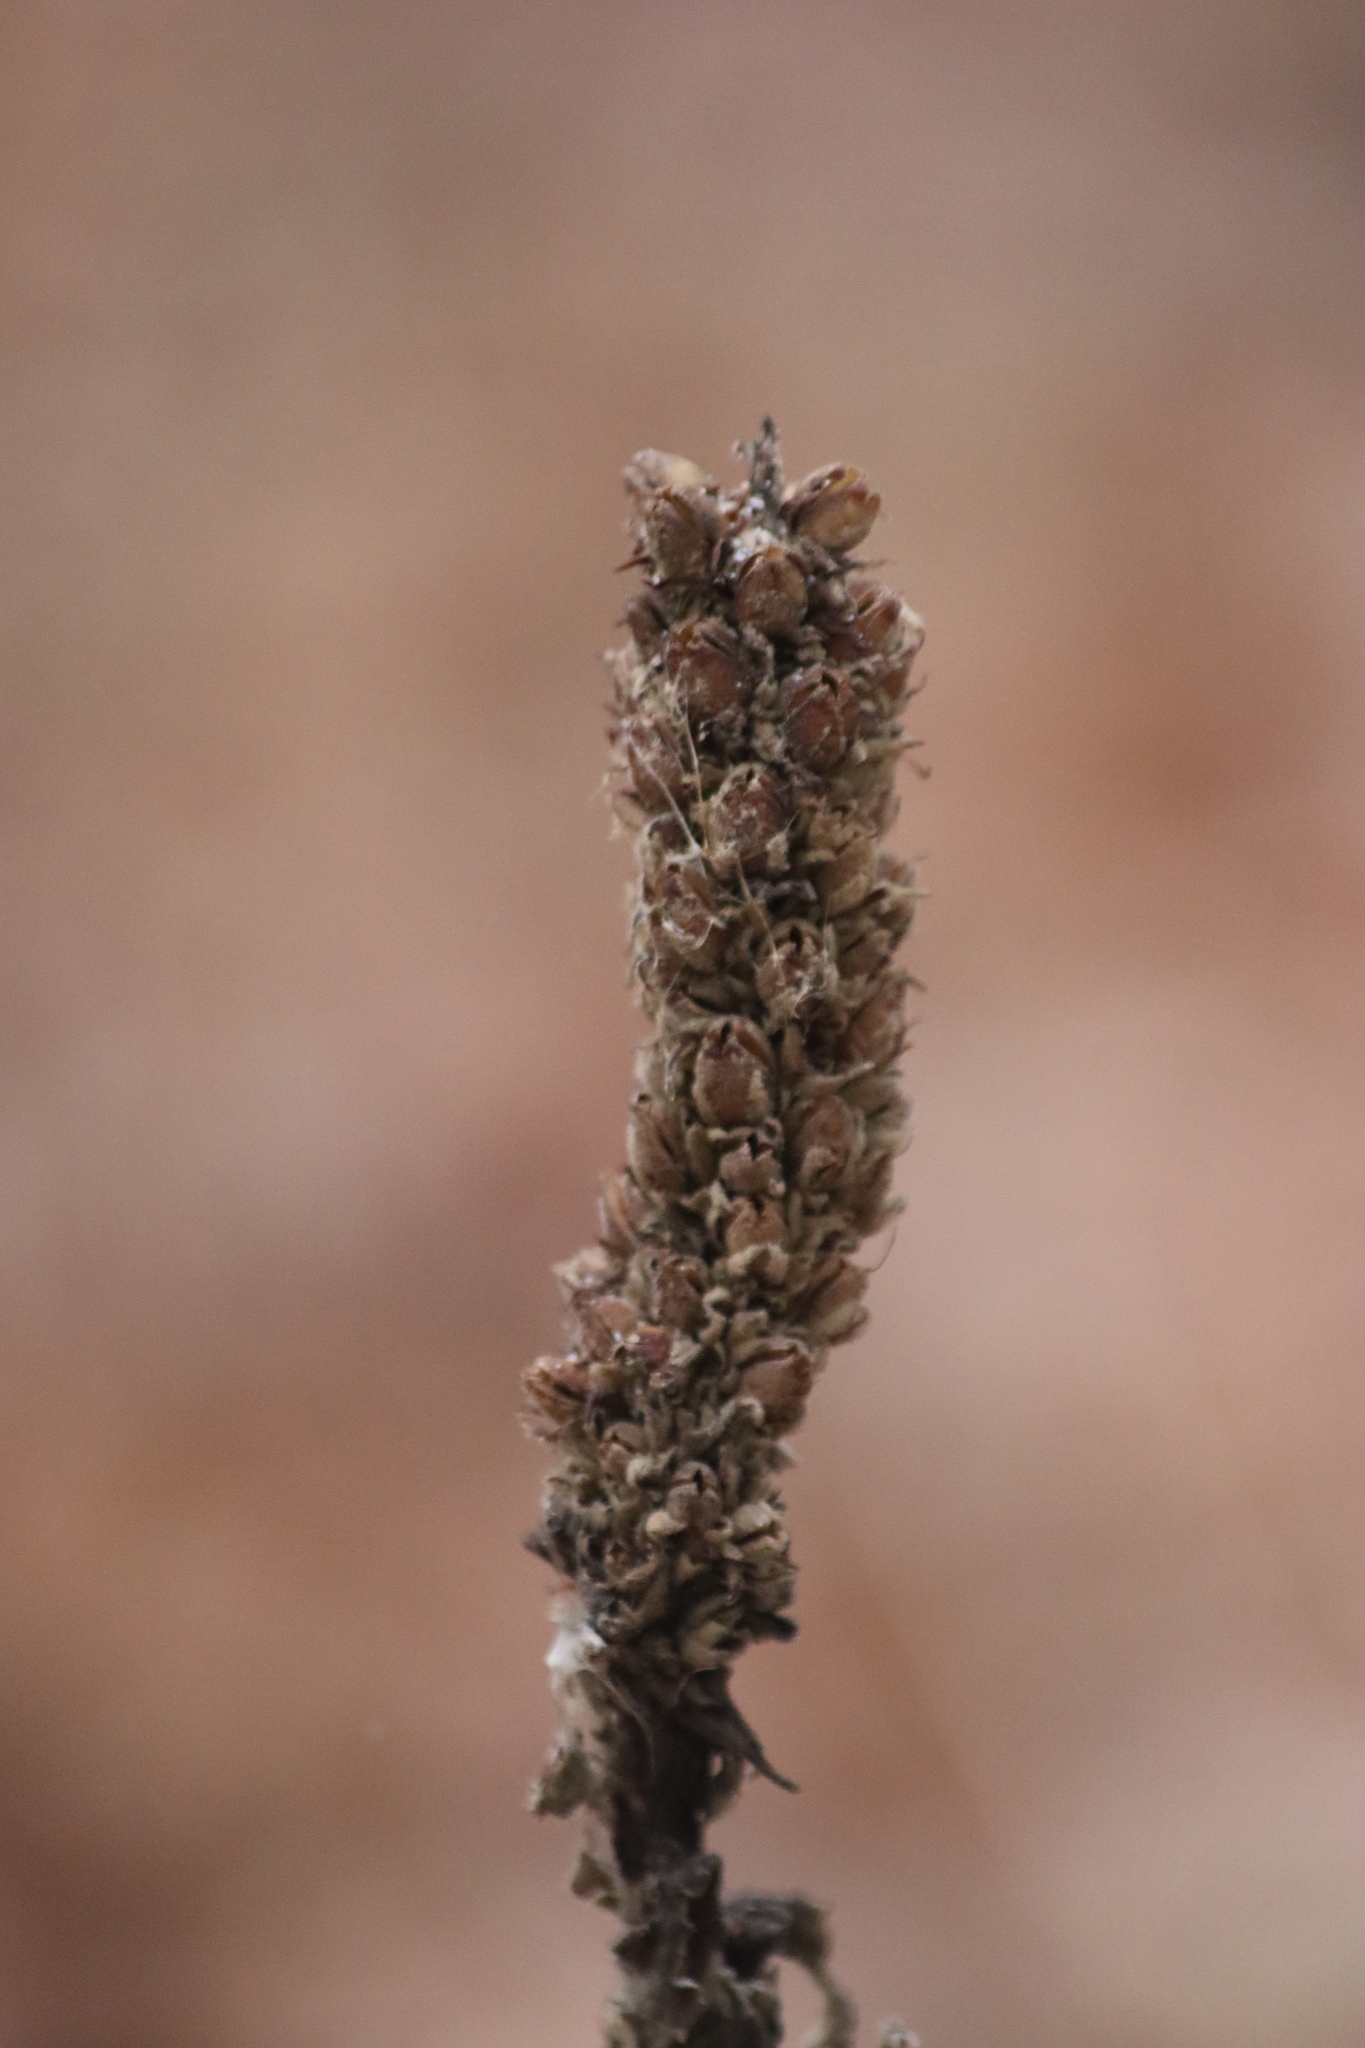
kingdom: Plantae
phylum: Tracheophyta
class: Magnoliopsida
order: Lamiales
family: Scrophulariaceae
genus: Verbascum
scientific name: Verbascum thapsus
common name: Common mullein
